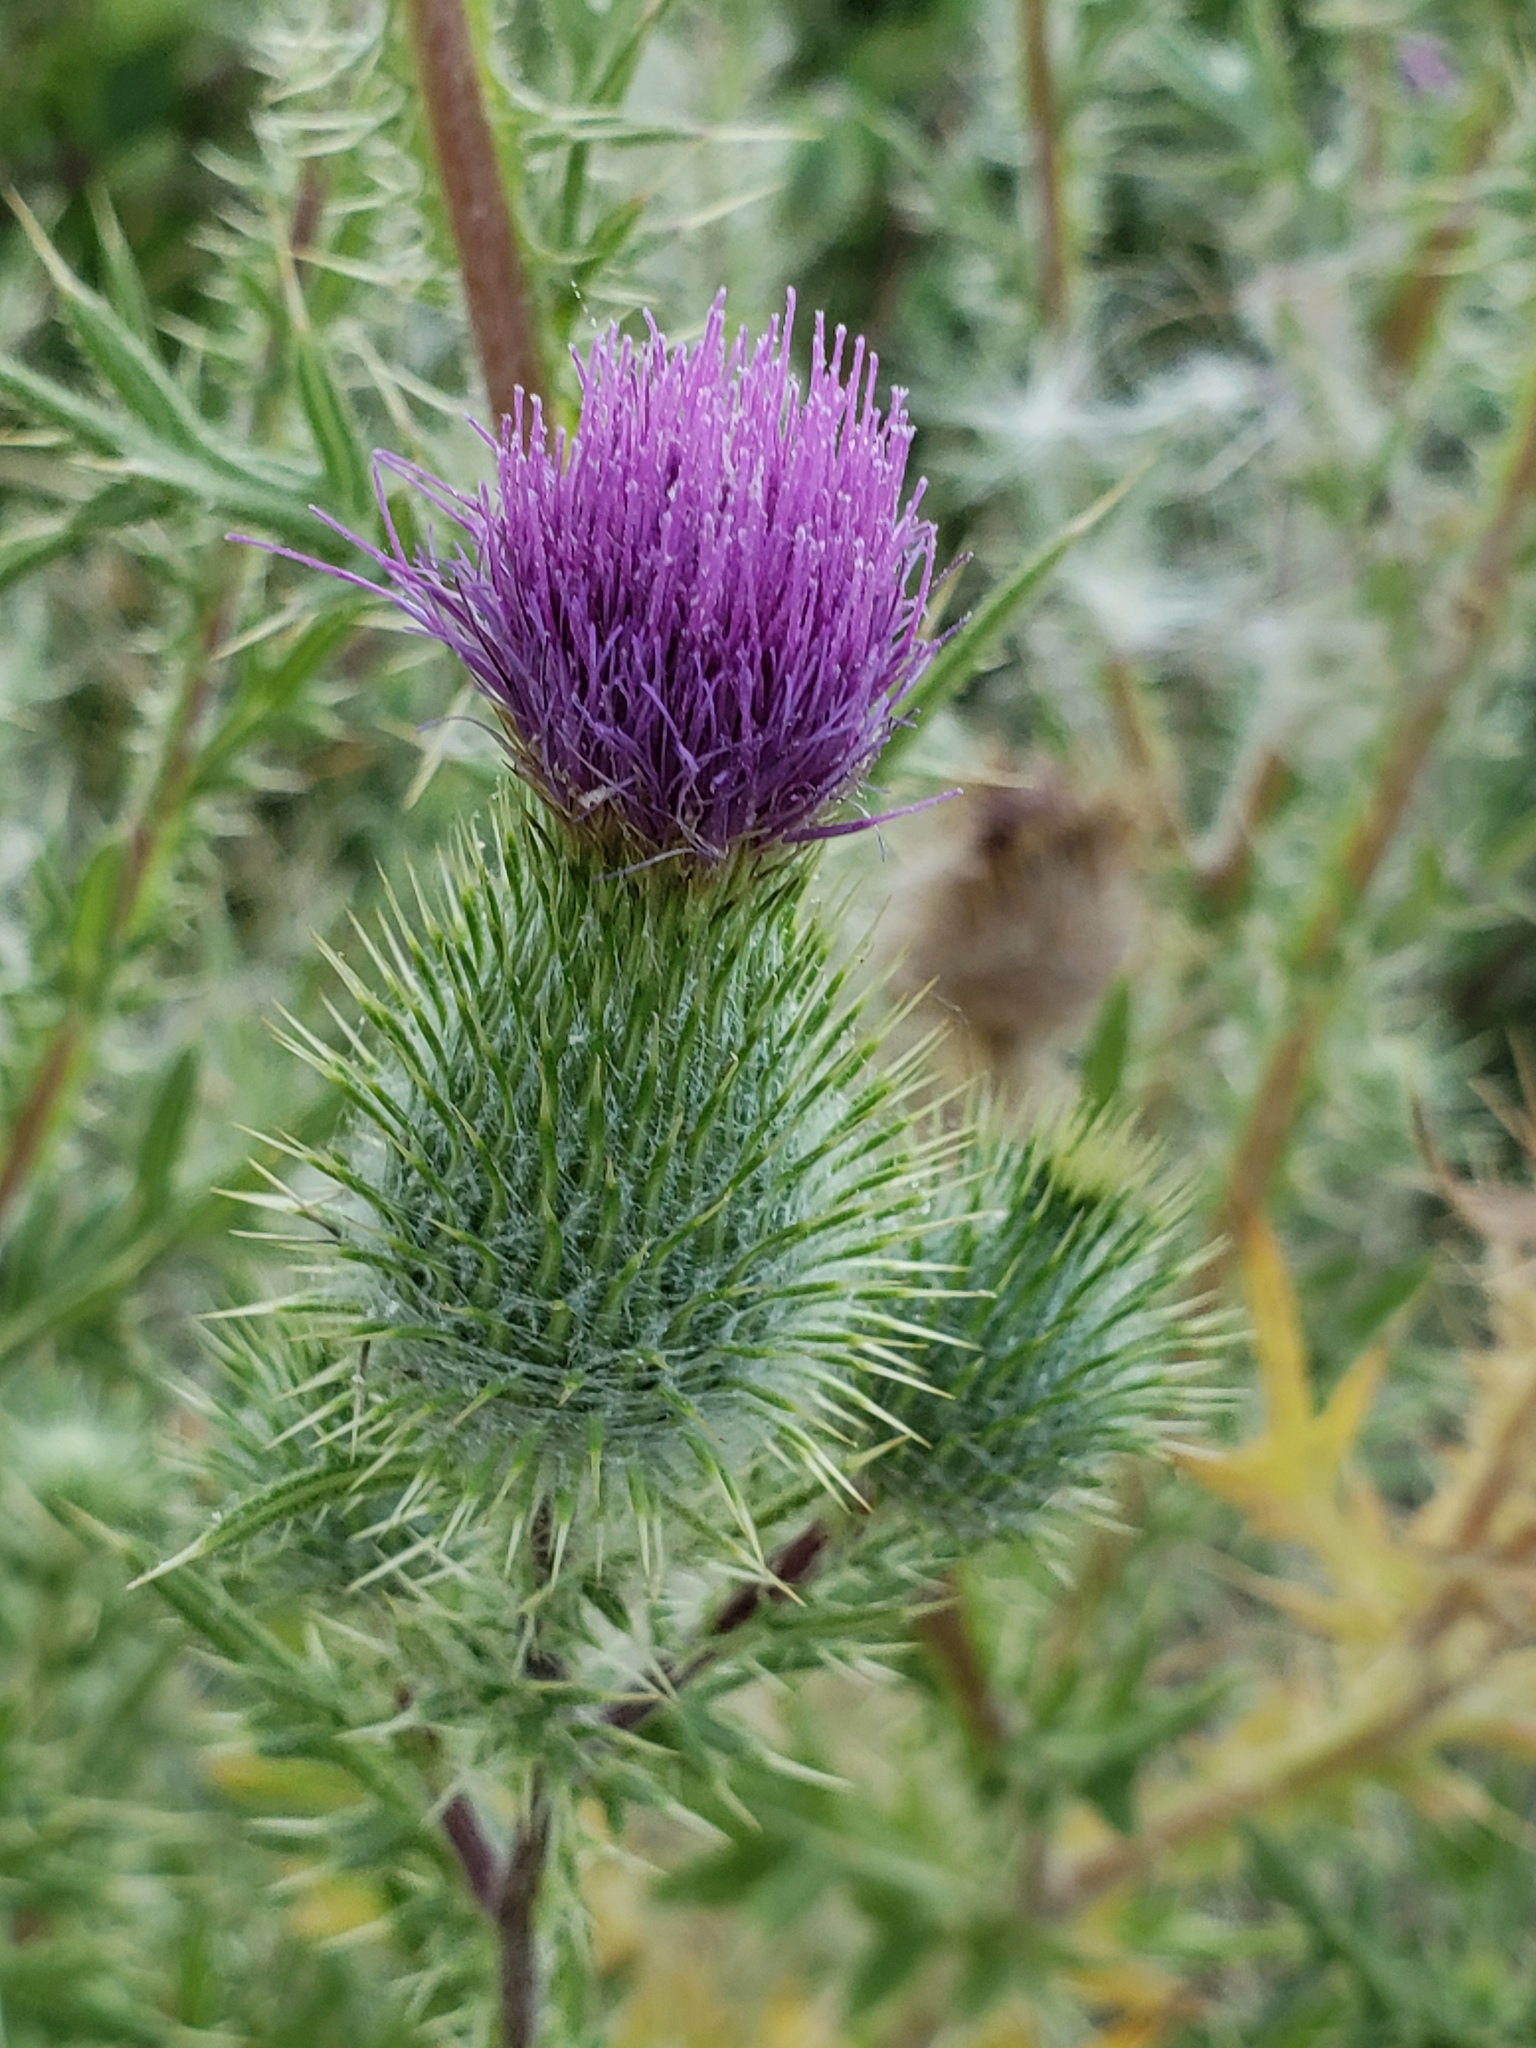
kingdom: Plantae
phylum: Tracheophyta
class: Magnoliopsida
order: Asterales
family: Asteraceae
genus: Cirsium
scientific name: Cirsium vulgare
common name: Bull thistle
